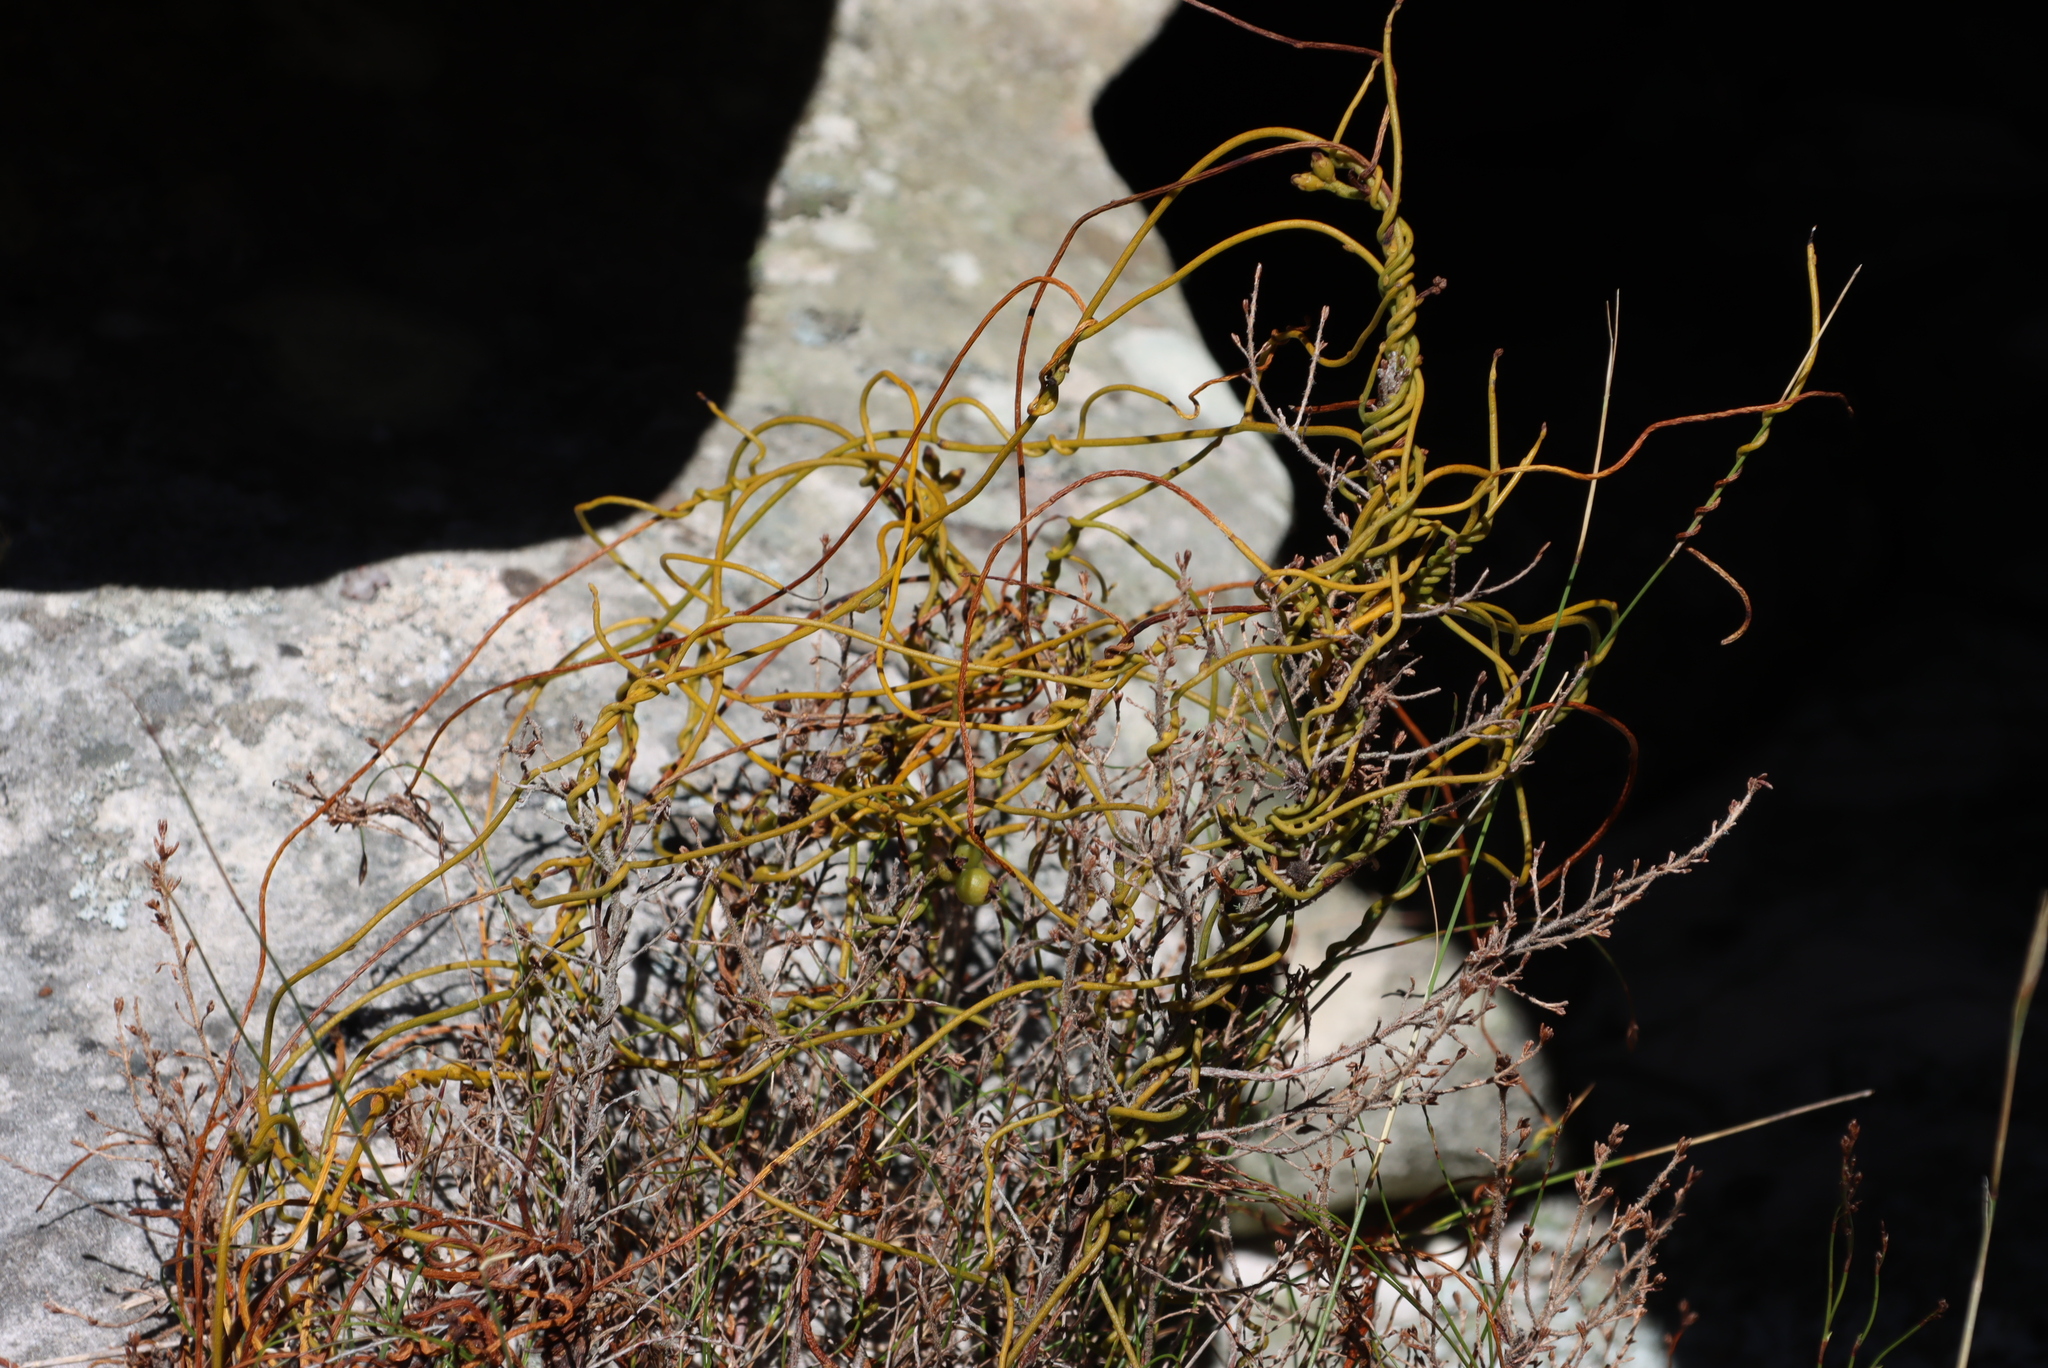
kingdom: Plantae
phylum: Tracheophyta
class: Magnoliopsida
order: Laurales
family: Lauraceae
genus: Cassytha
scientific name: Cassytha ciliolata
